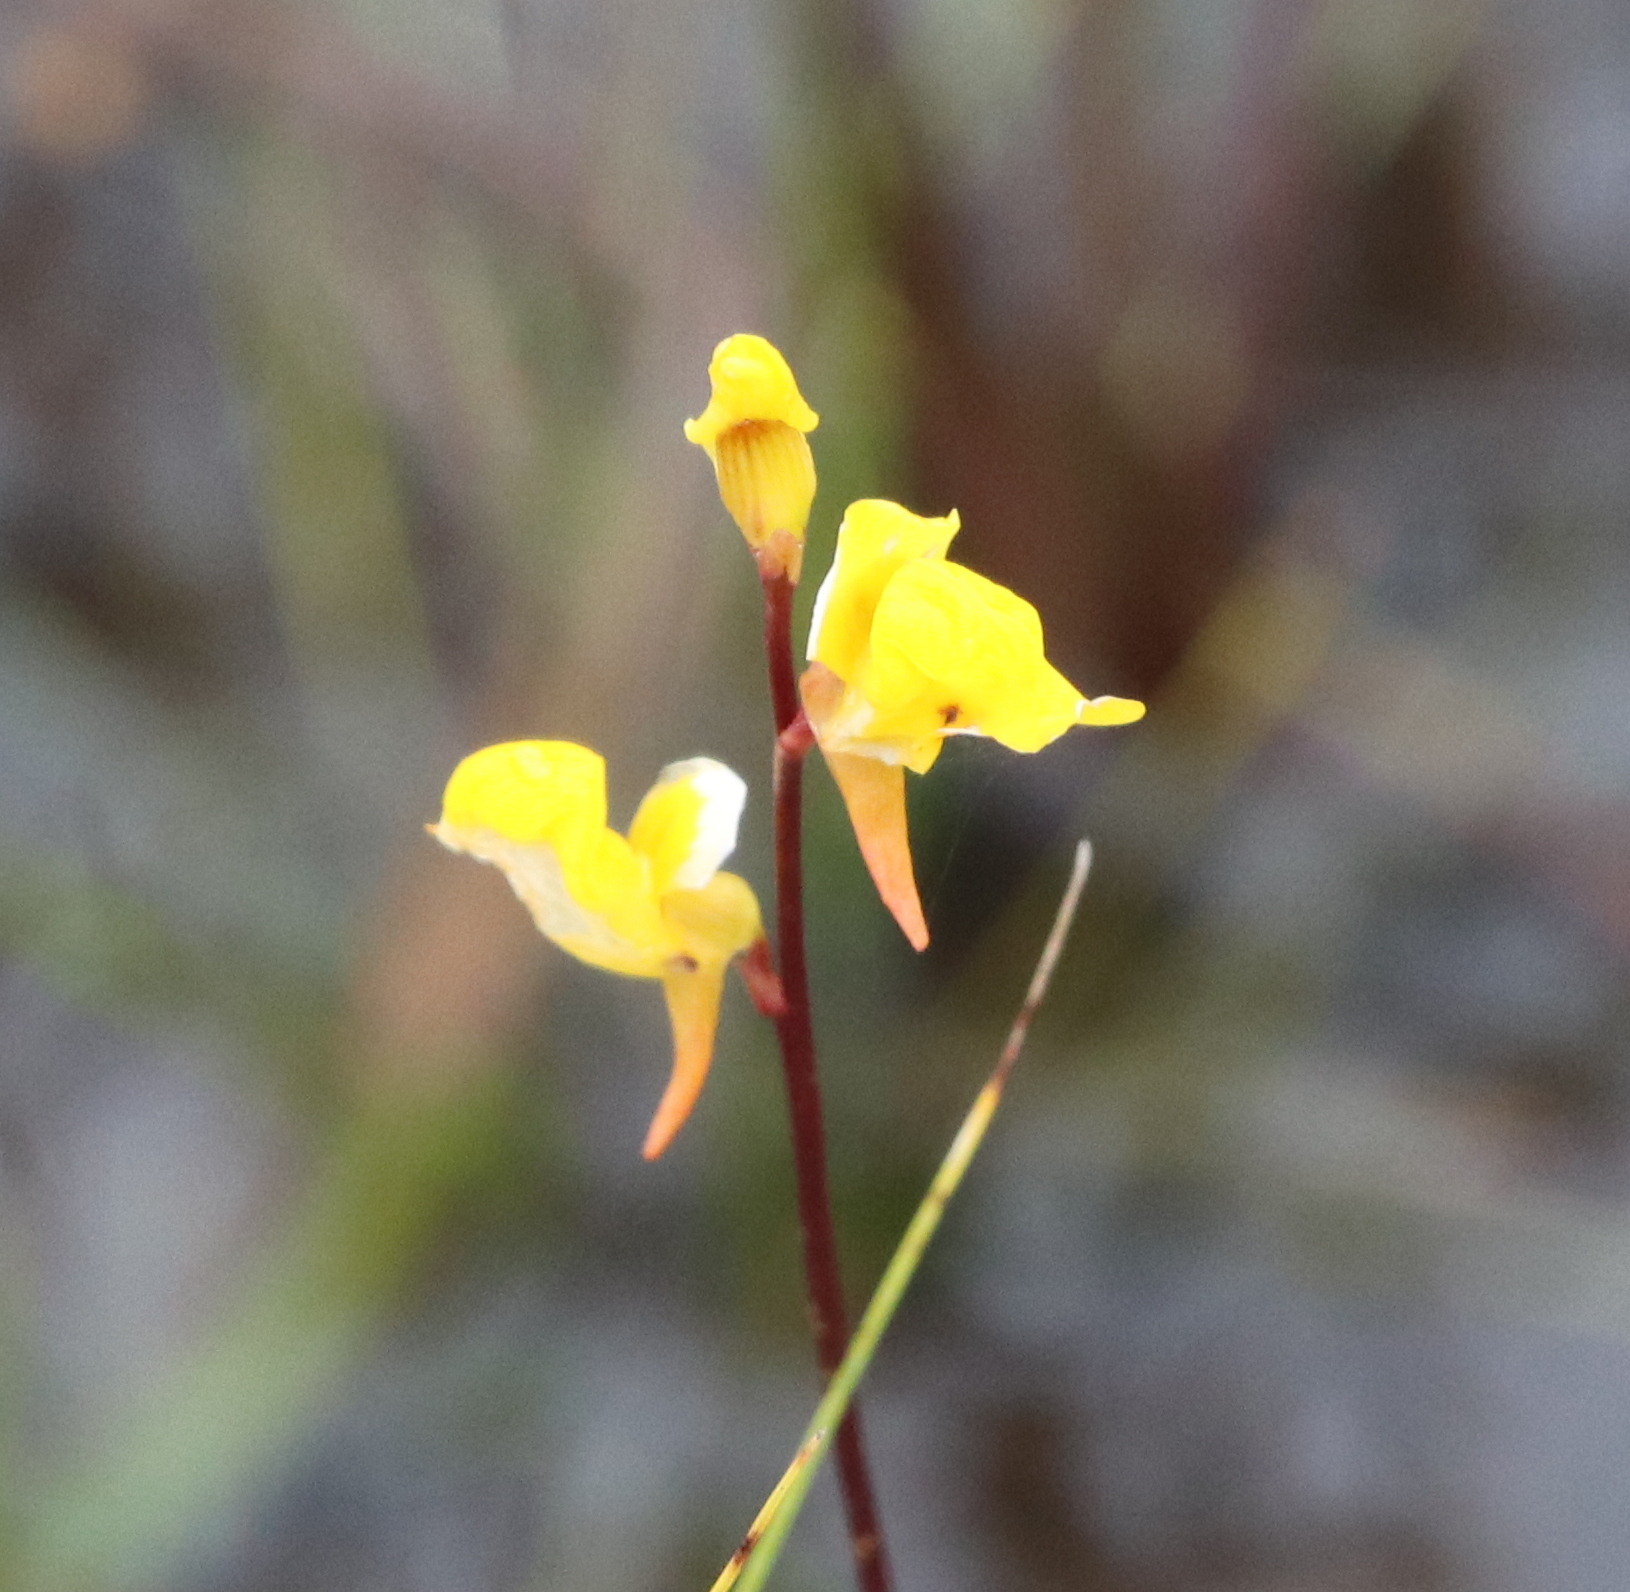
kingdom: Plantae
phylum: Tracheophyta
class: Magnoliopsida
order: Lamiales
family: Lentibulariaceae
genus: Utricularia
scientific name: Utricularia juncea
